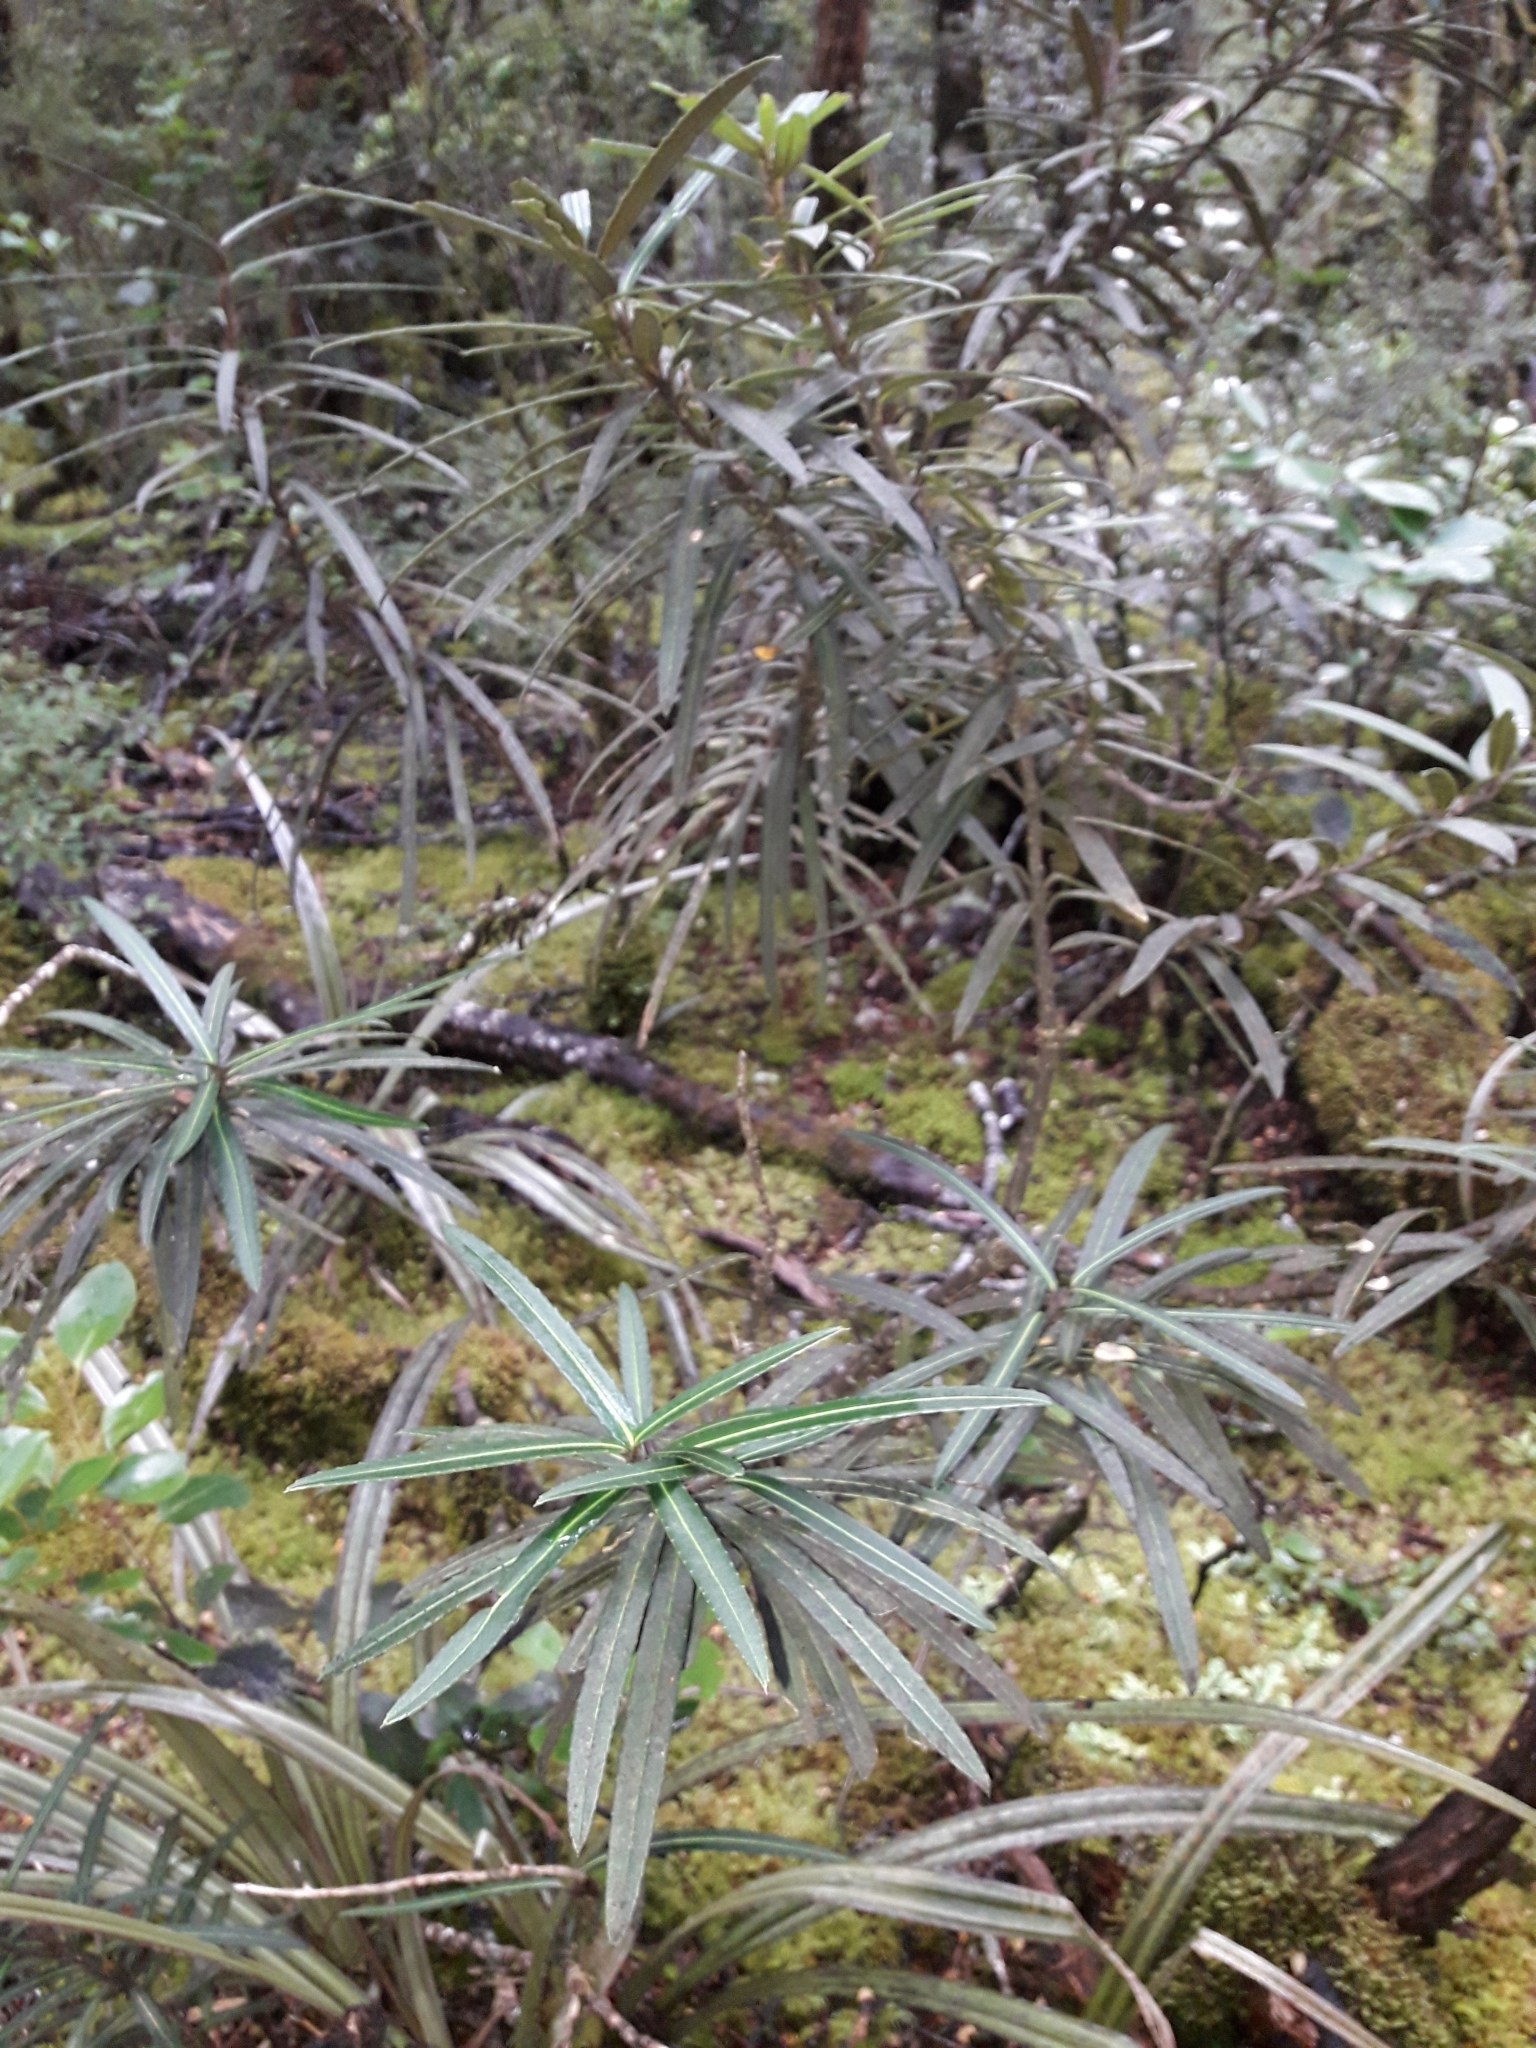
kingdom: Plantae
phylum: Tracheophyta
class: Magnoliopsida
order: Apiales
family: Araliaceae
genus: Pseudopanax
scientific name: Pseudopanax linearis
